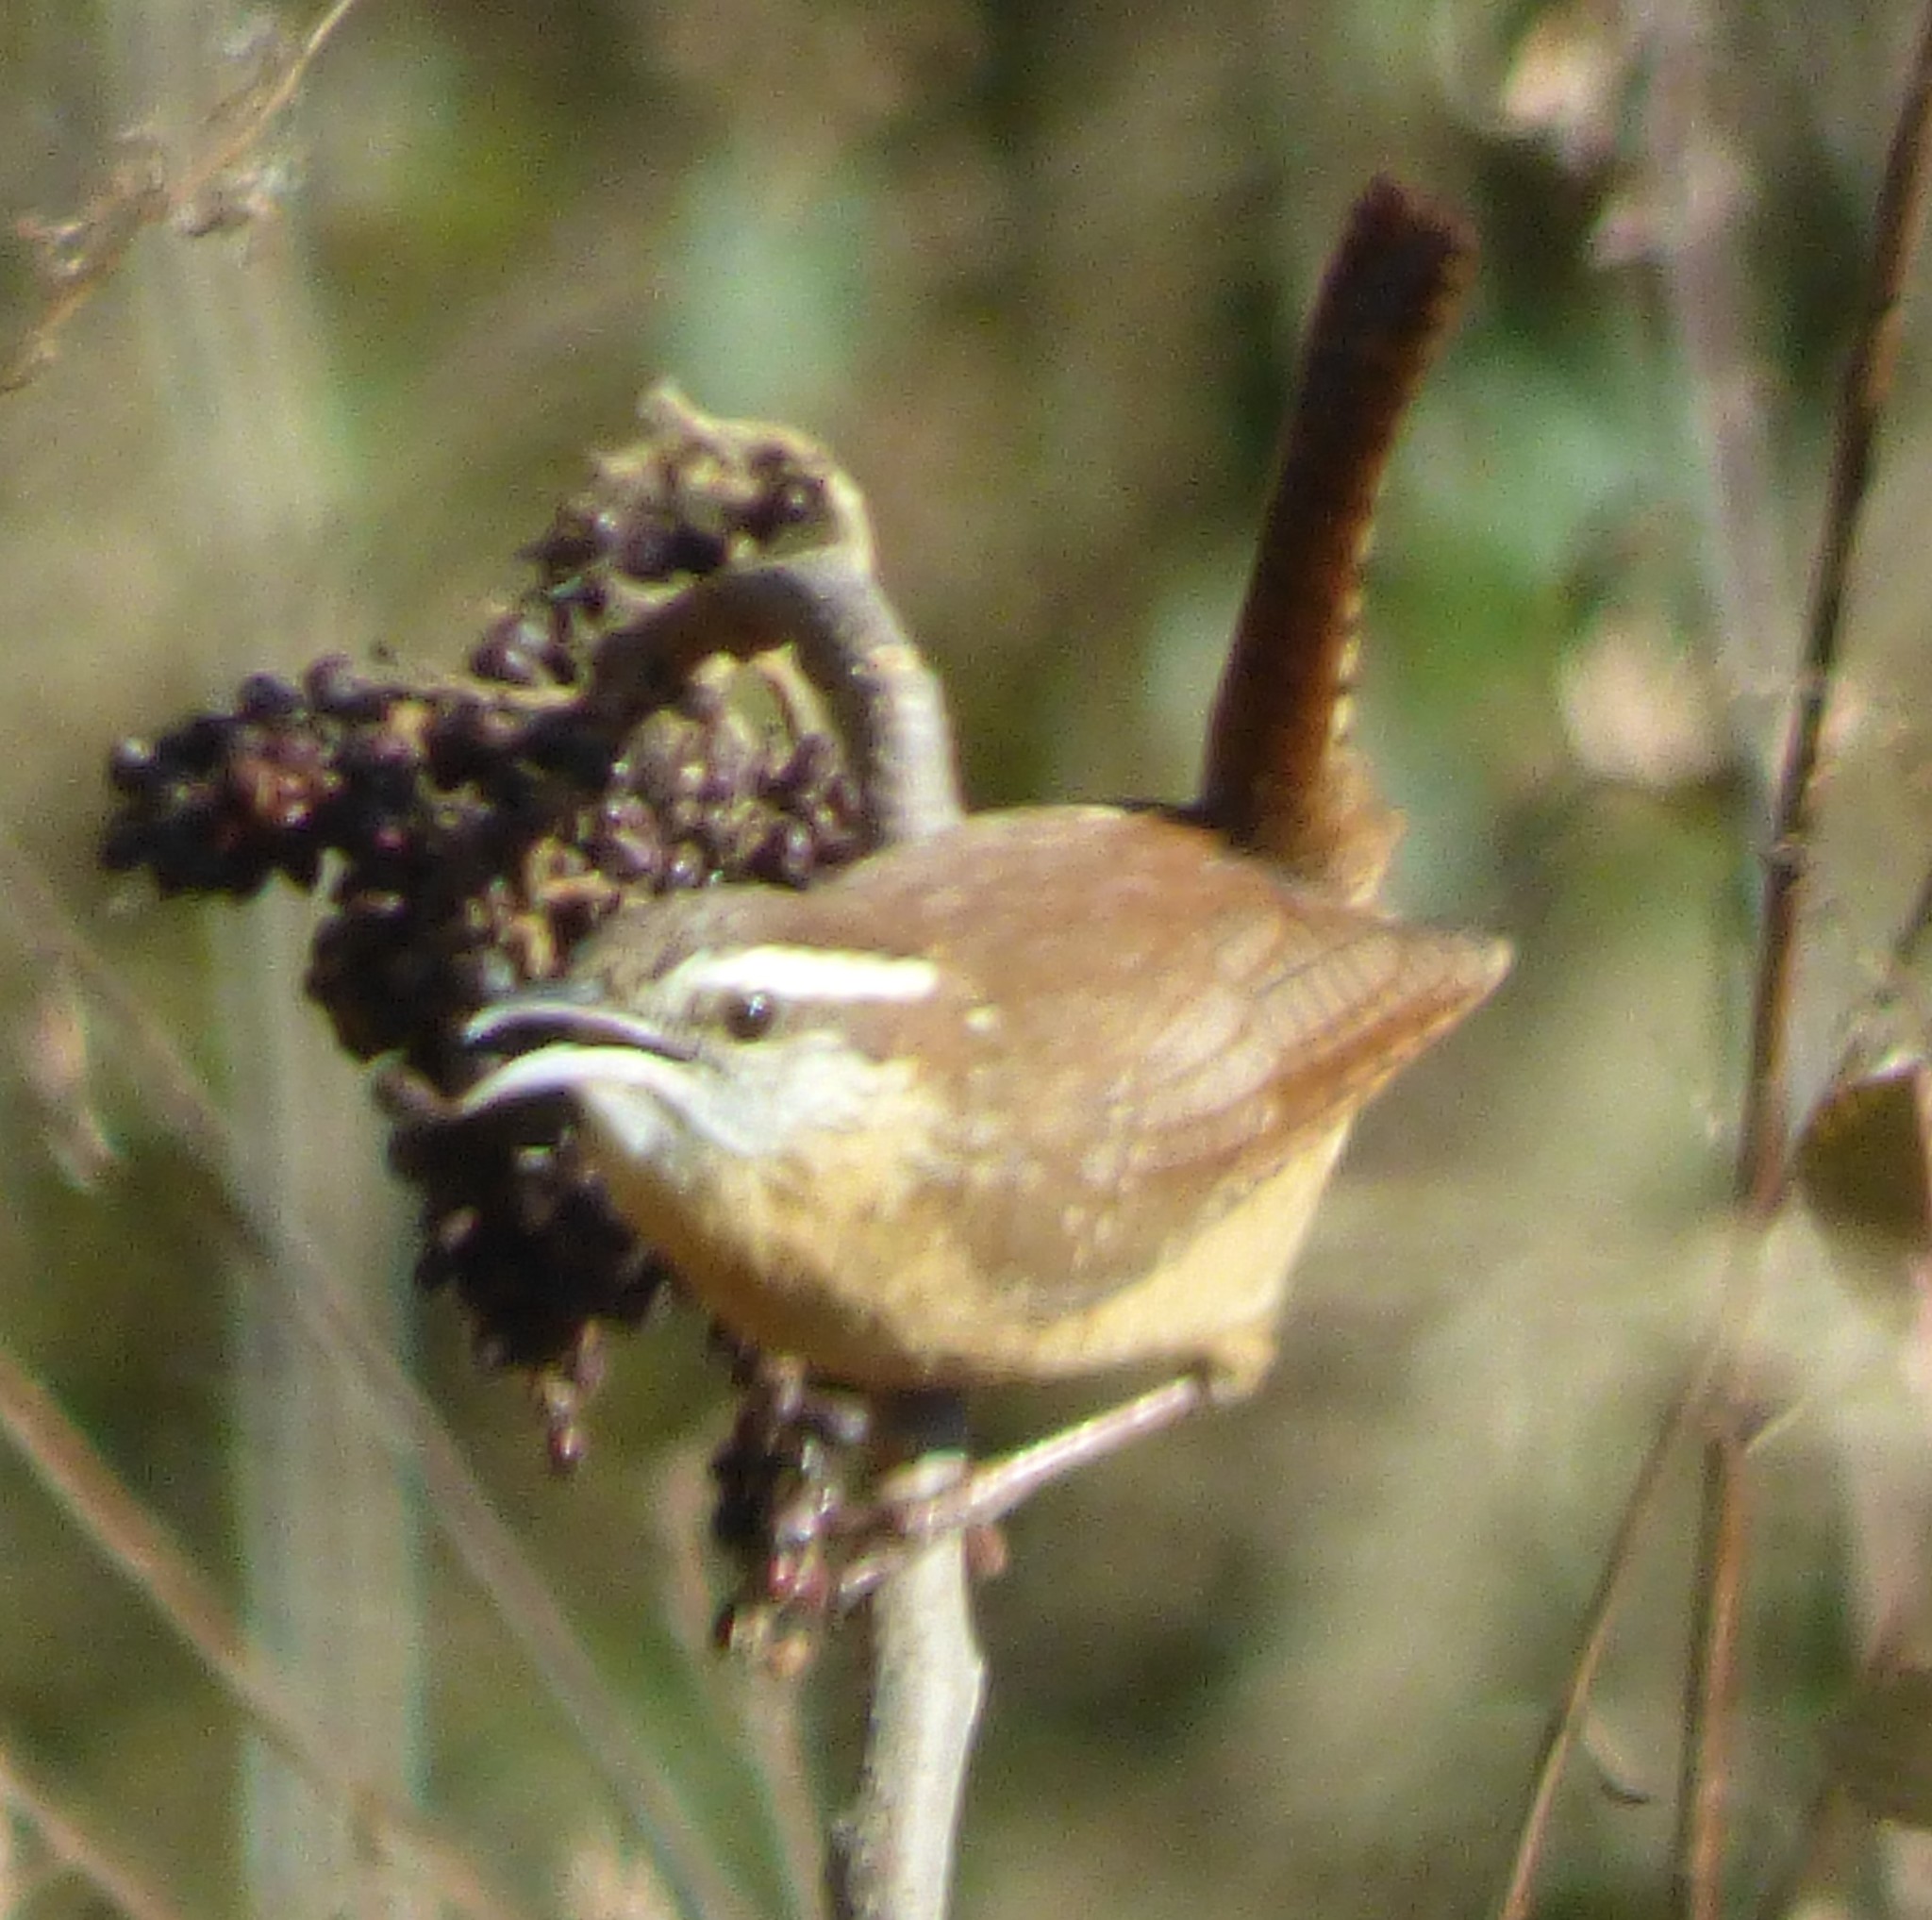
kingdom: Animalia
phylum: Chordata
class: Aves
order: Passeriformes
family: Troglodytidae
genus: Thryothorus
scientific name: Thryothorus ludovicianus
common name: Carolina wren
